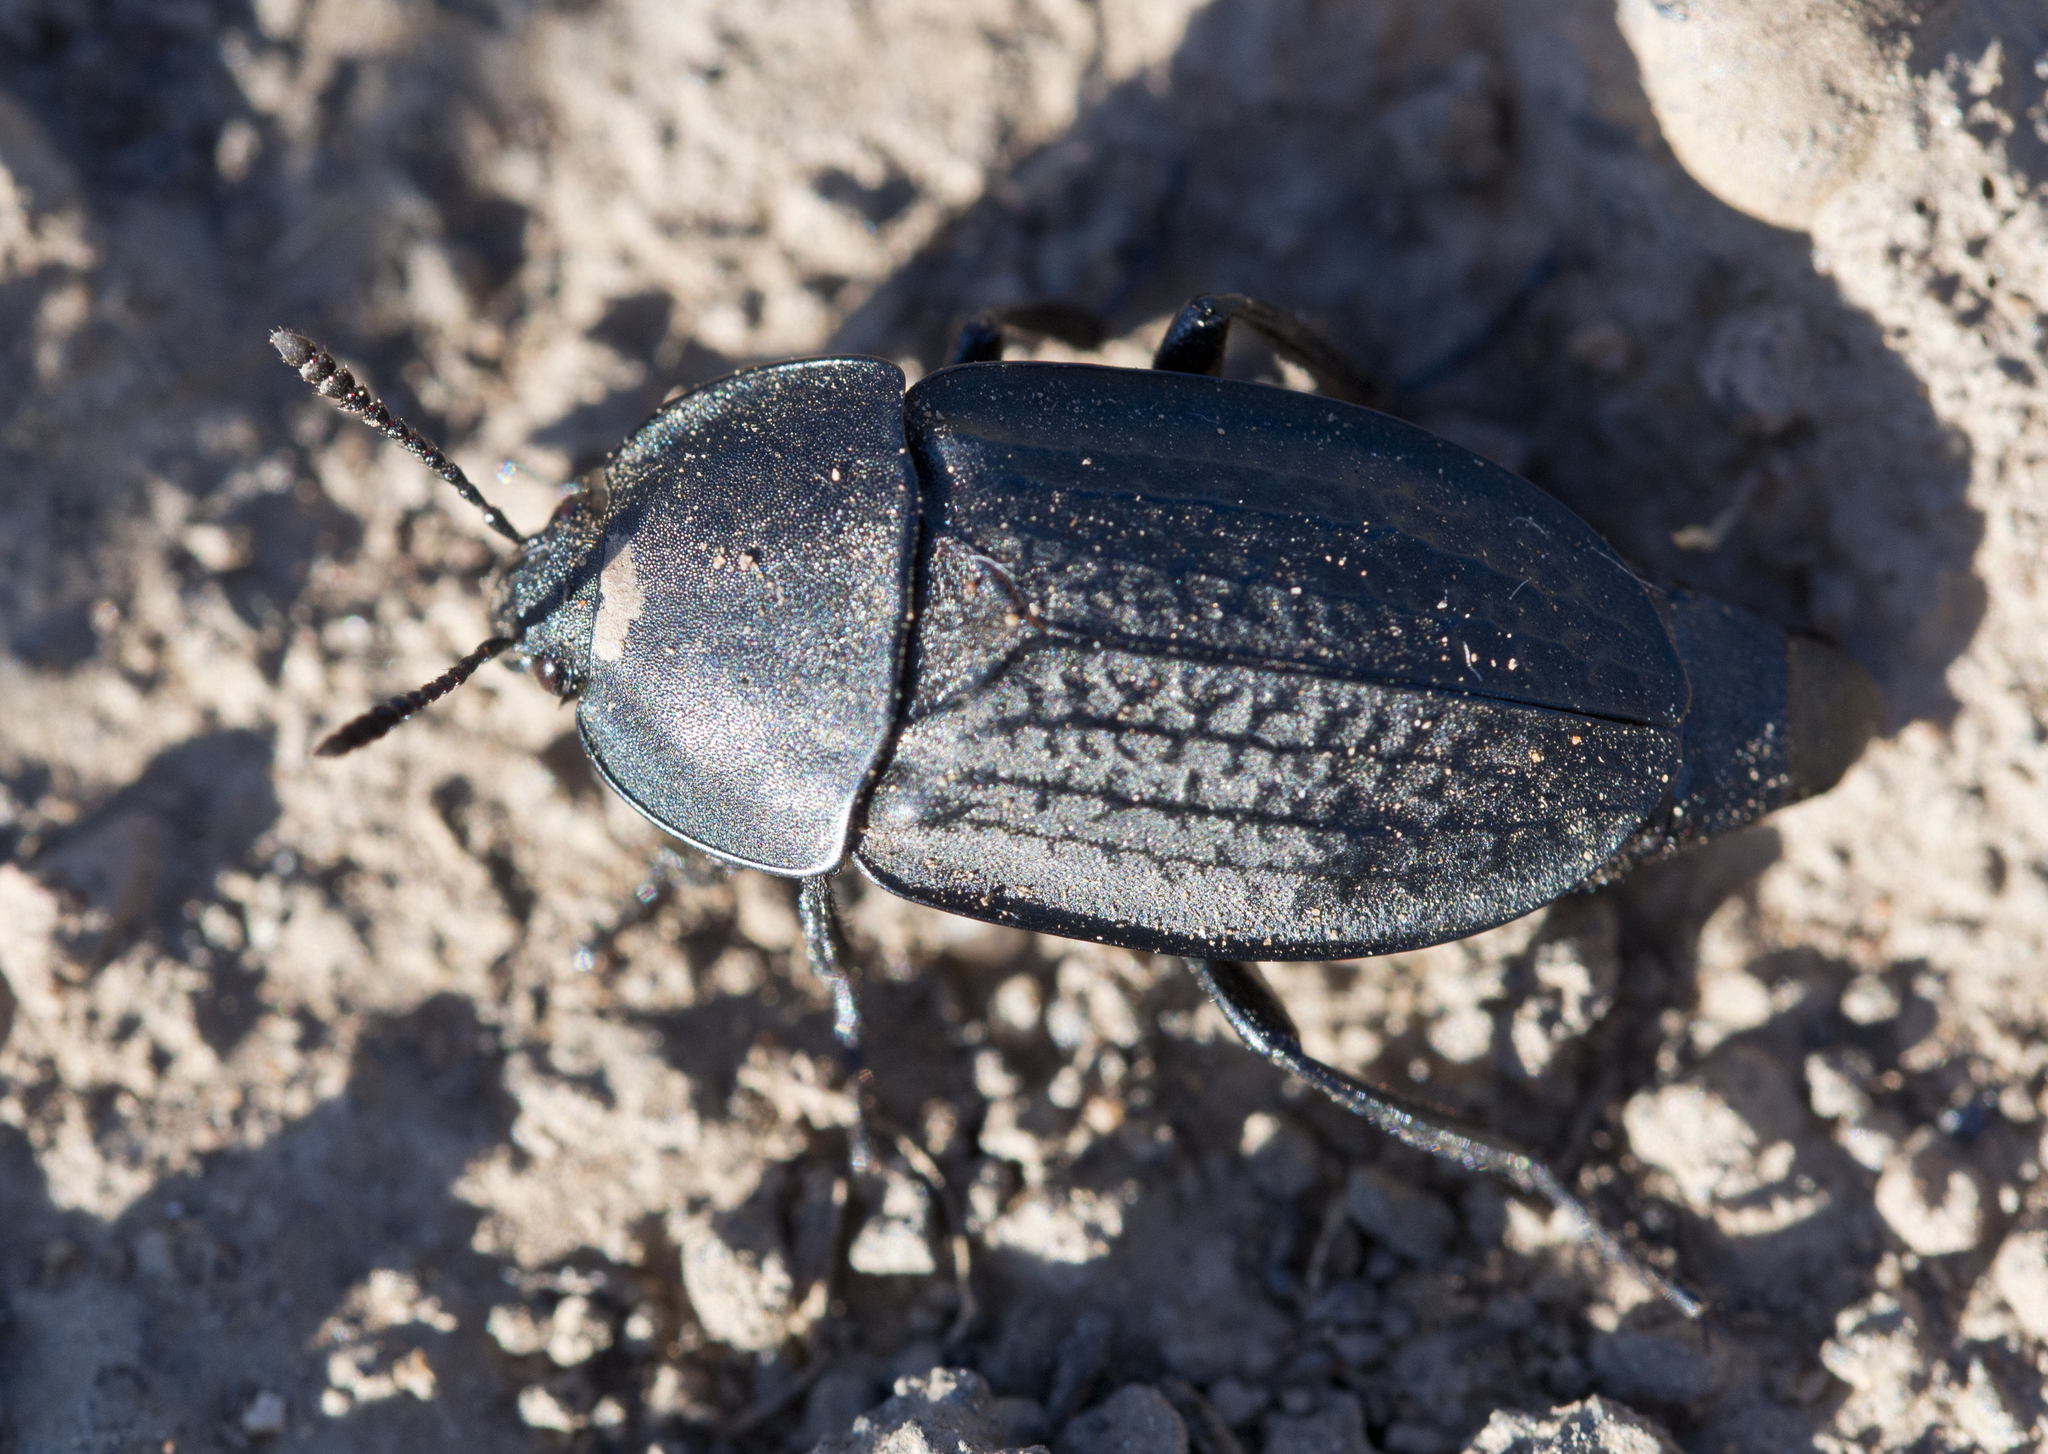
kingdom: Animalia
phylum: Arthropoda
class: Insecta
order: Coleoptera
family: Staphylinidae
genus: Heterosilpha
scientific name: Heterosilpha ramosa
